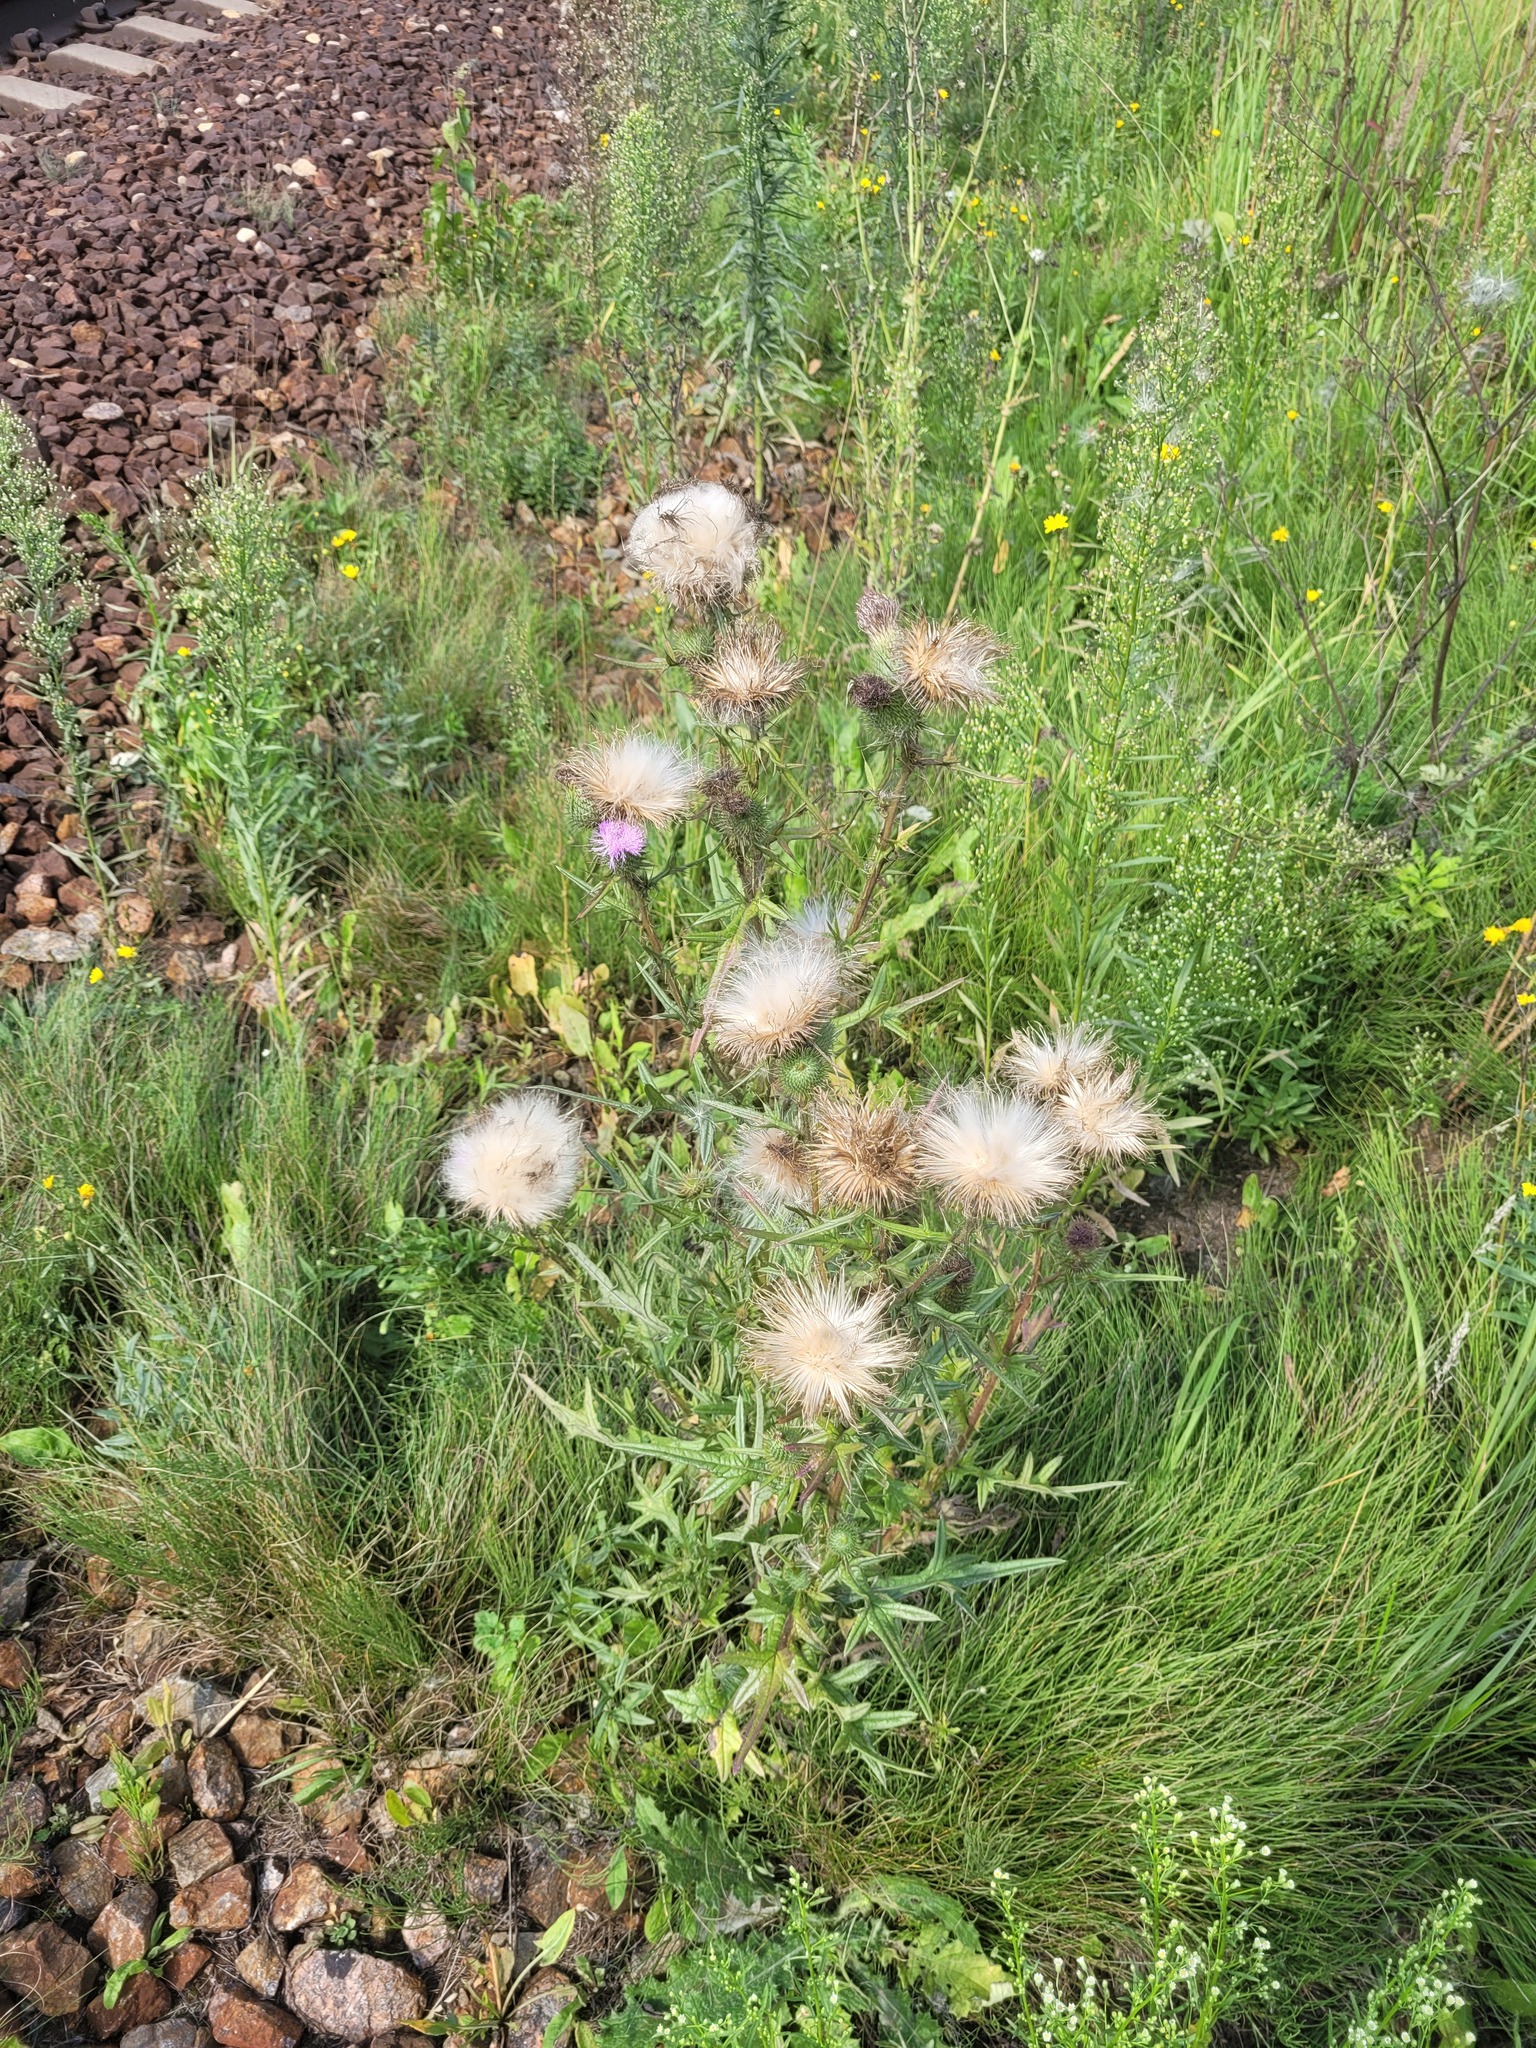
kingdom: Plantae
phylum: Tracheophyta
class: Magnoliopsida
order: Asterales
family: Asteraceae
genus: Cirsium
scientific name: Cirsium vulgare
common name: Bull thistle
